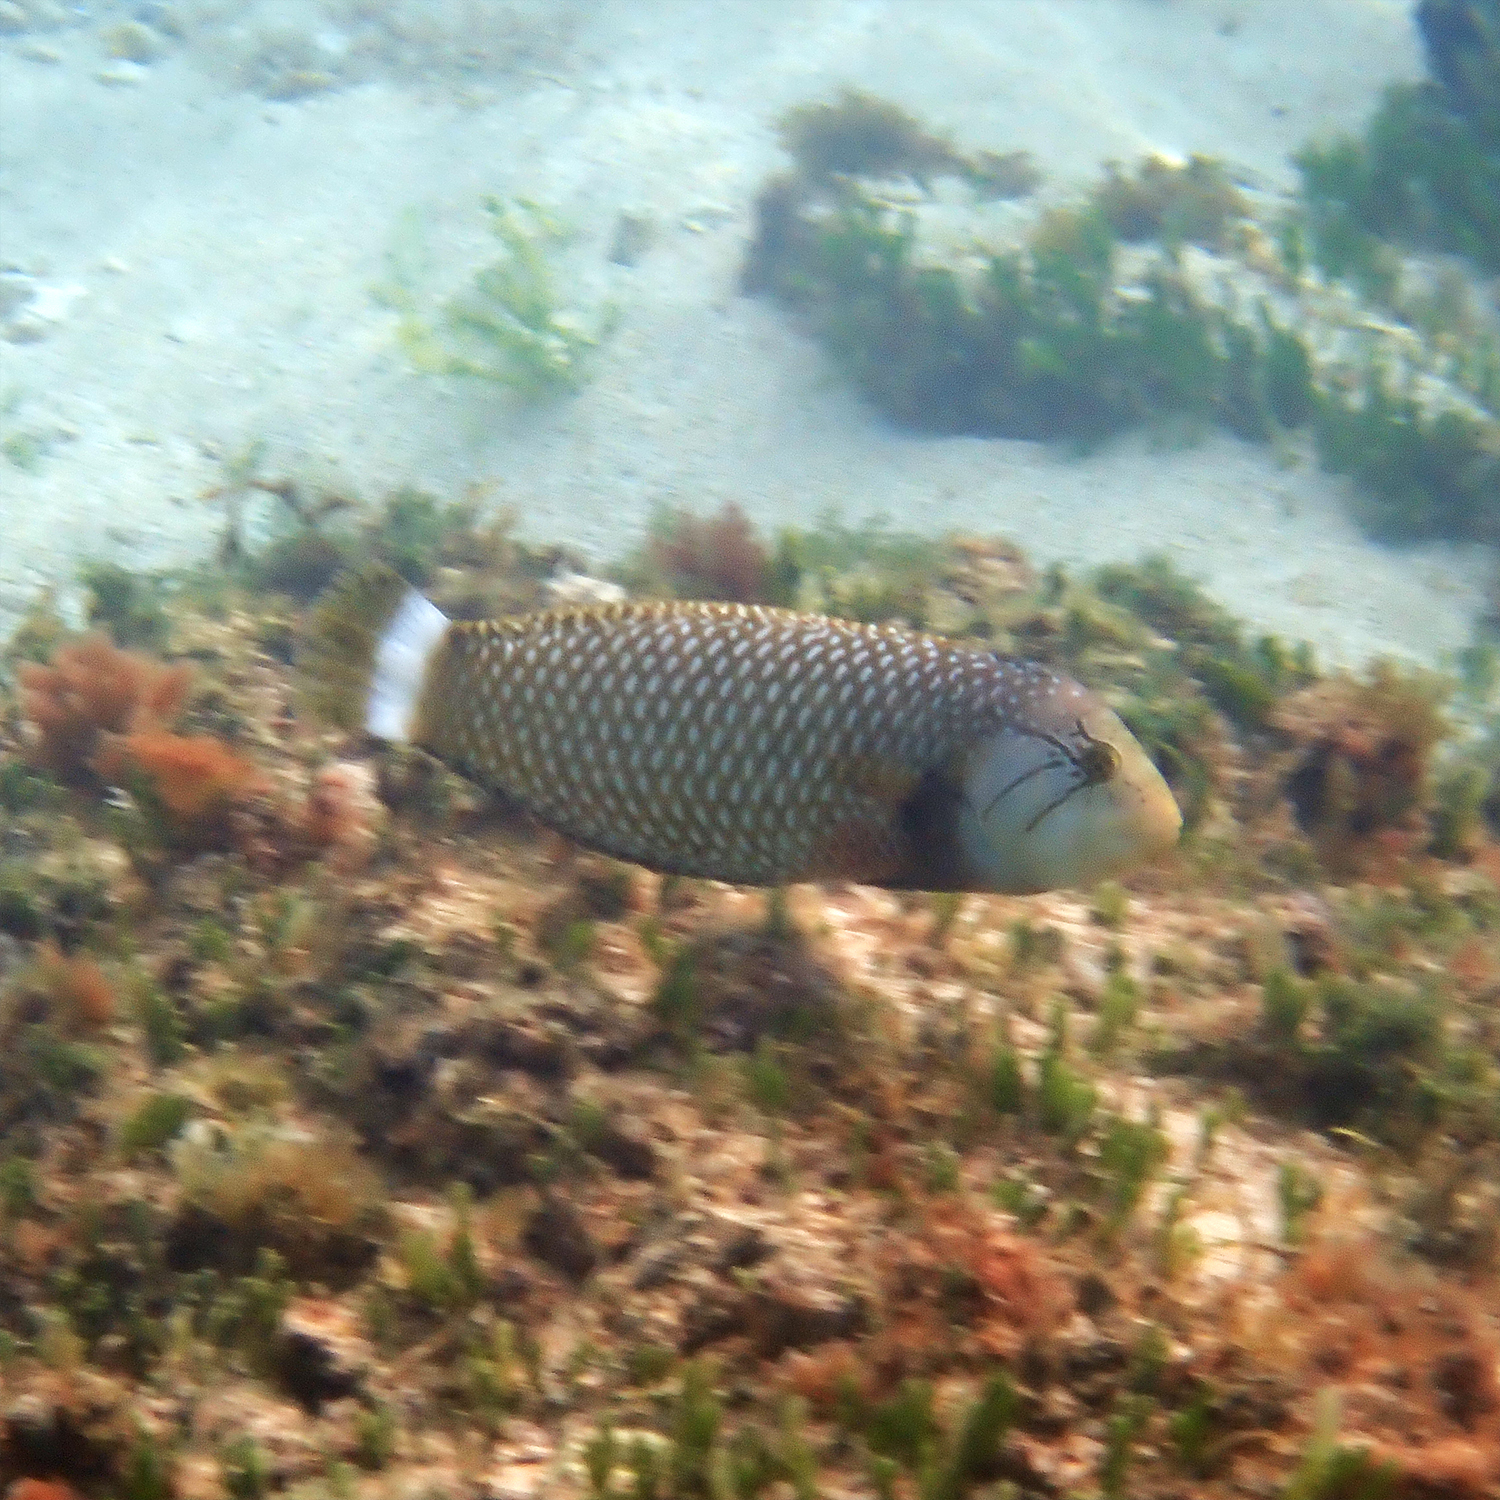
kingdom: Animalia
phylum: Chordata
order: Perciformes
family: Labridae
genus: Novaculichthys
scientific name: Novaculichthys taeniourus
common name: Rockmover wrasse
